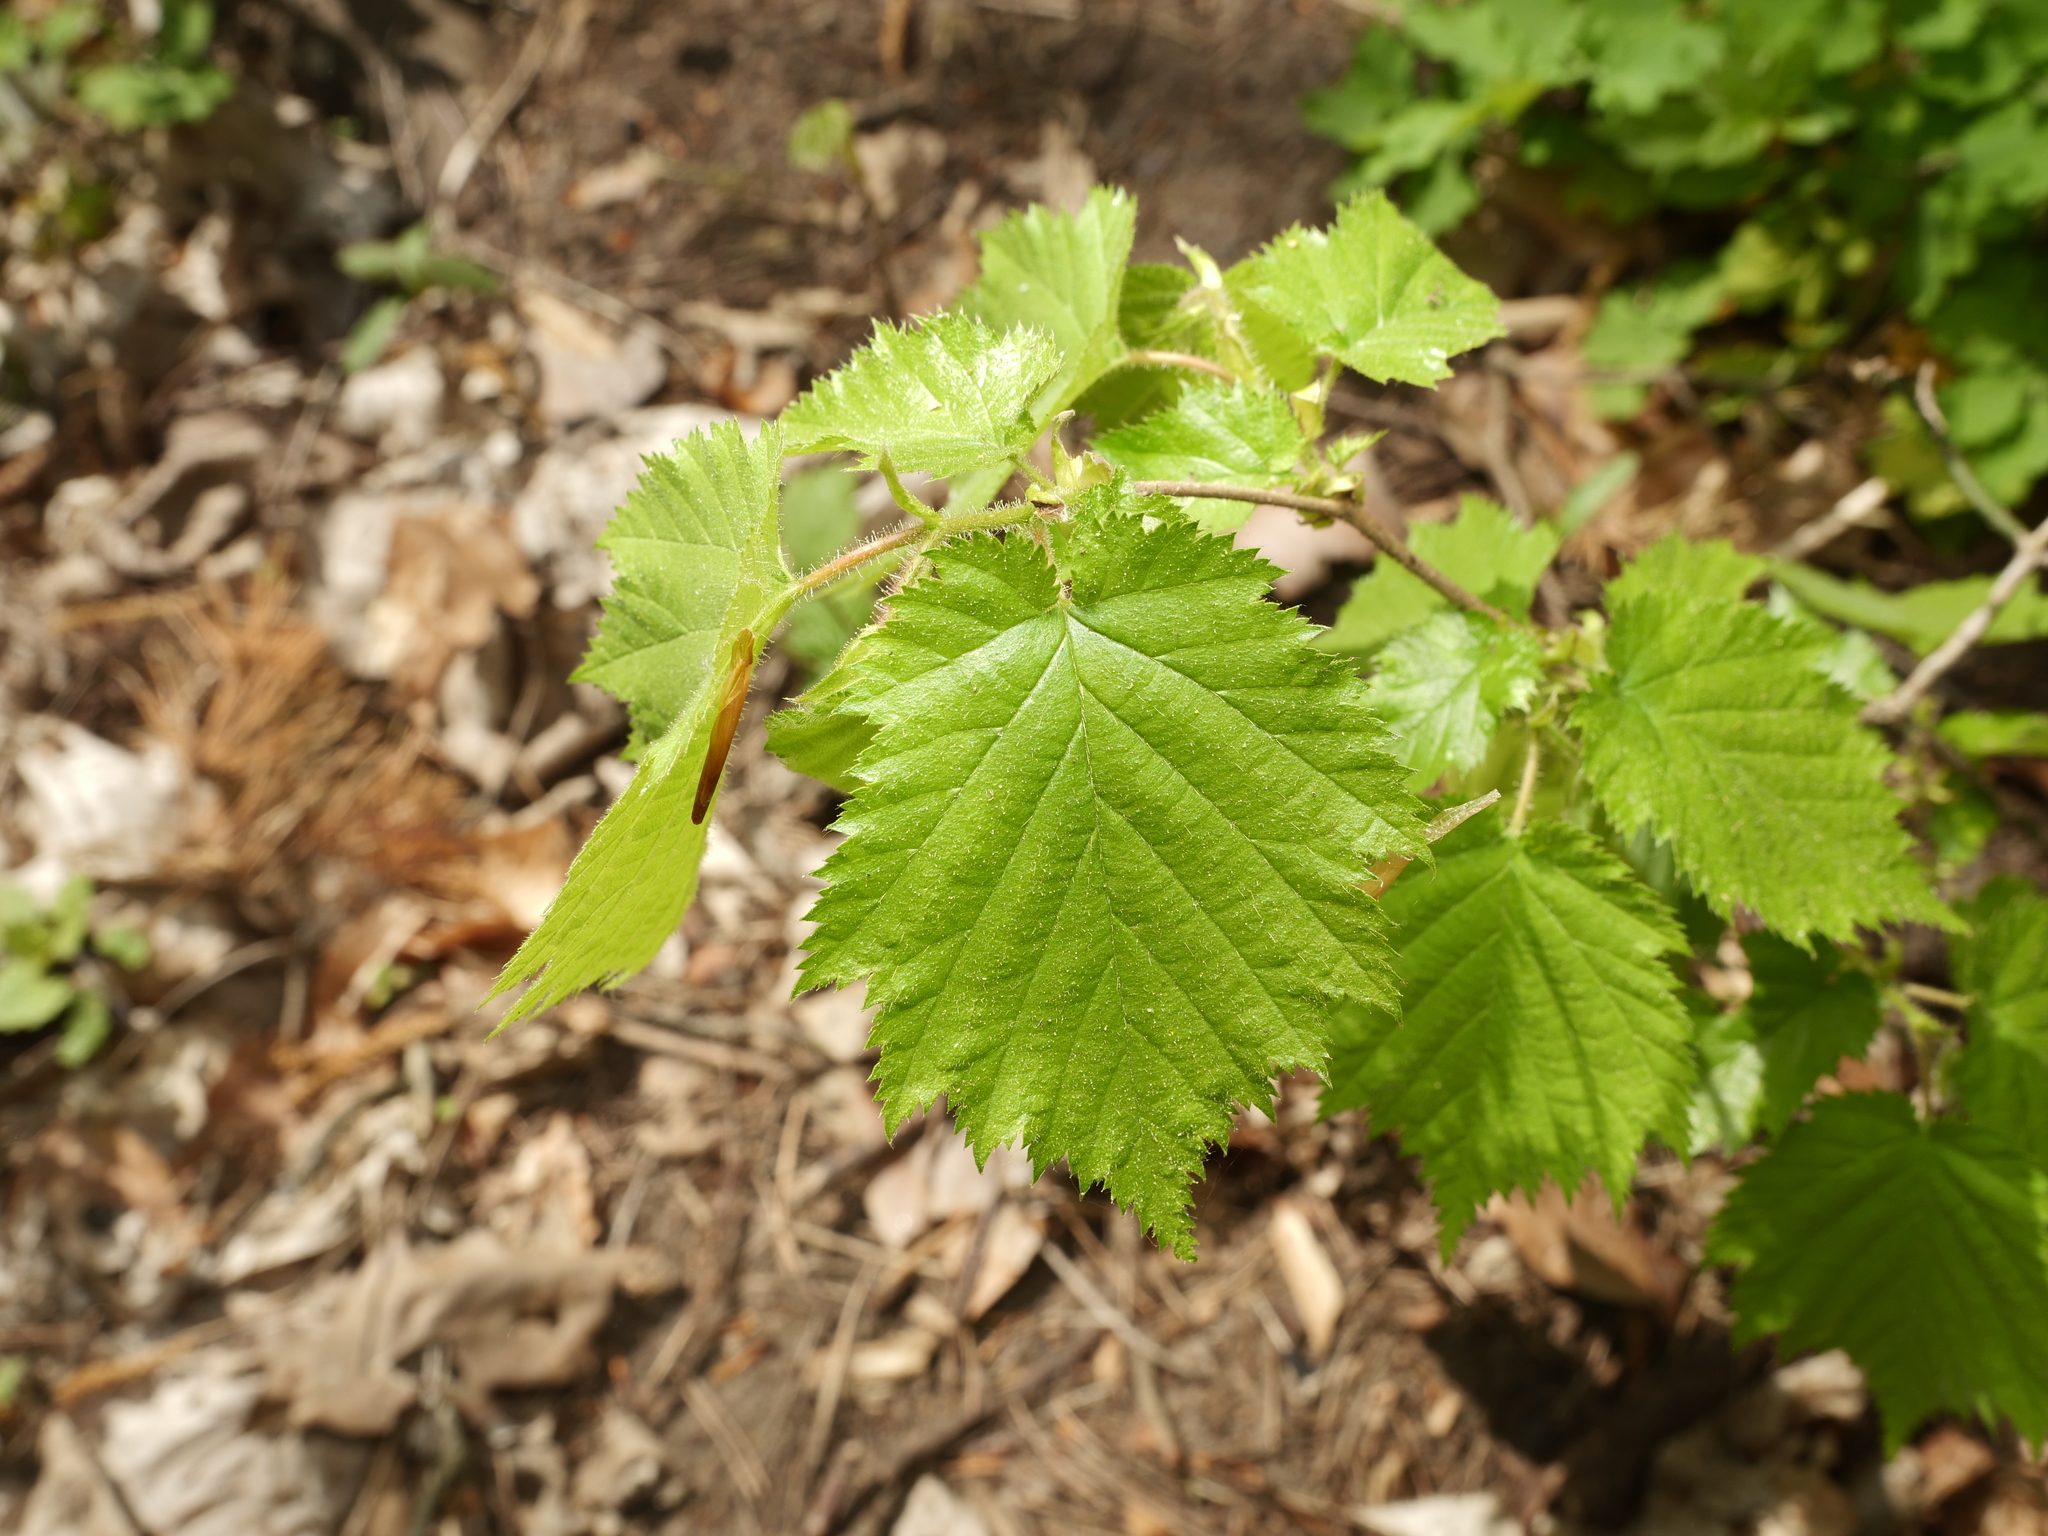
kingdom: Plantae
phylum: Tracheophyta
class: Magnoliopsida
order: Fagales
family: Betulaceae
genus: Corylus
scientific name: Corylus avellana
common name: European hazel
